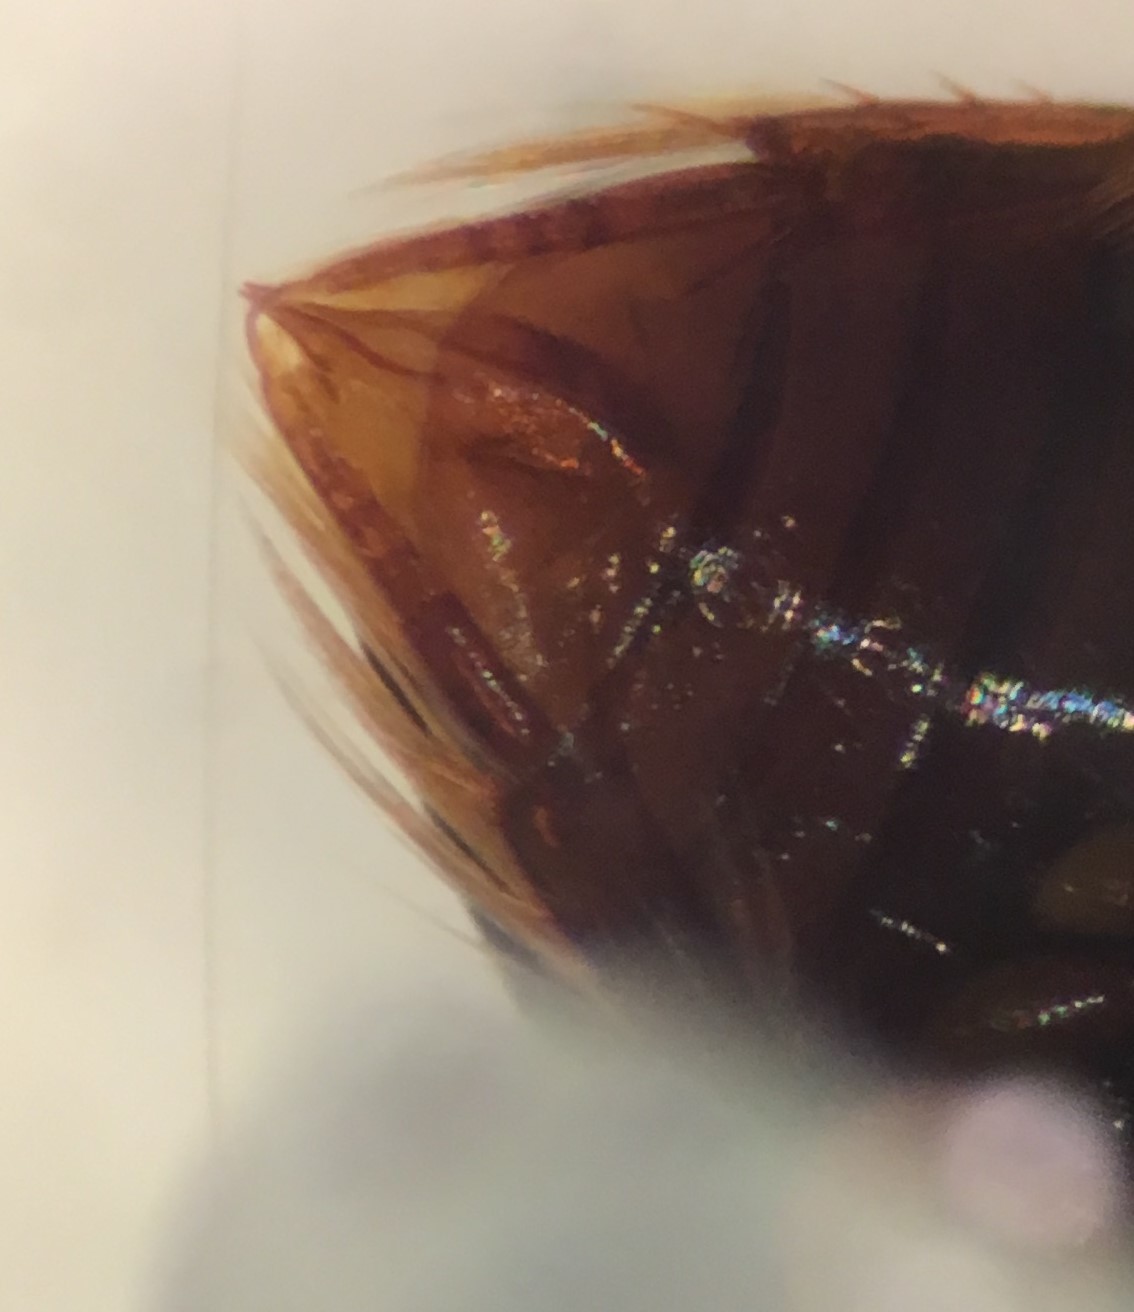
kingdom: Animalia
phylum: Arthropoda
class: Insecta
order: Coleoptera
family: Noteridae
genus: Suphisellus
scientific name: Suphisellus bicolor
